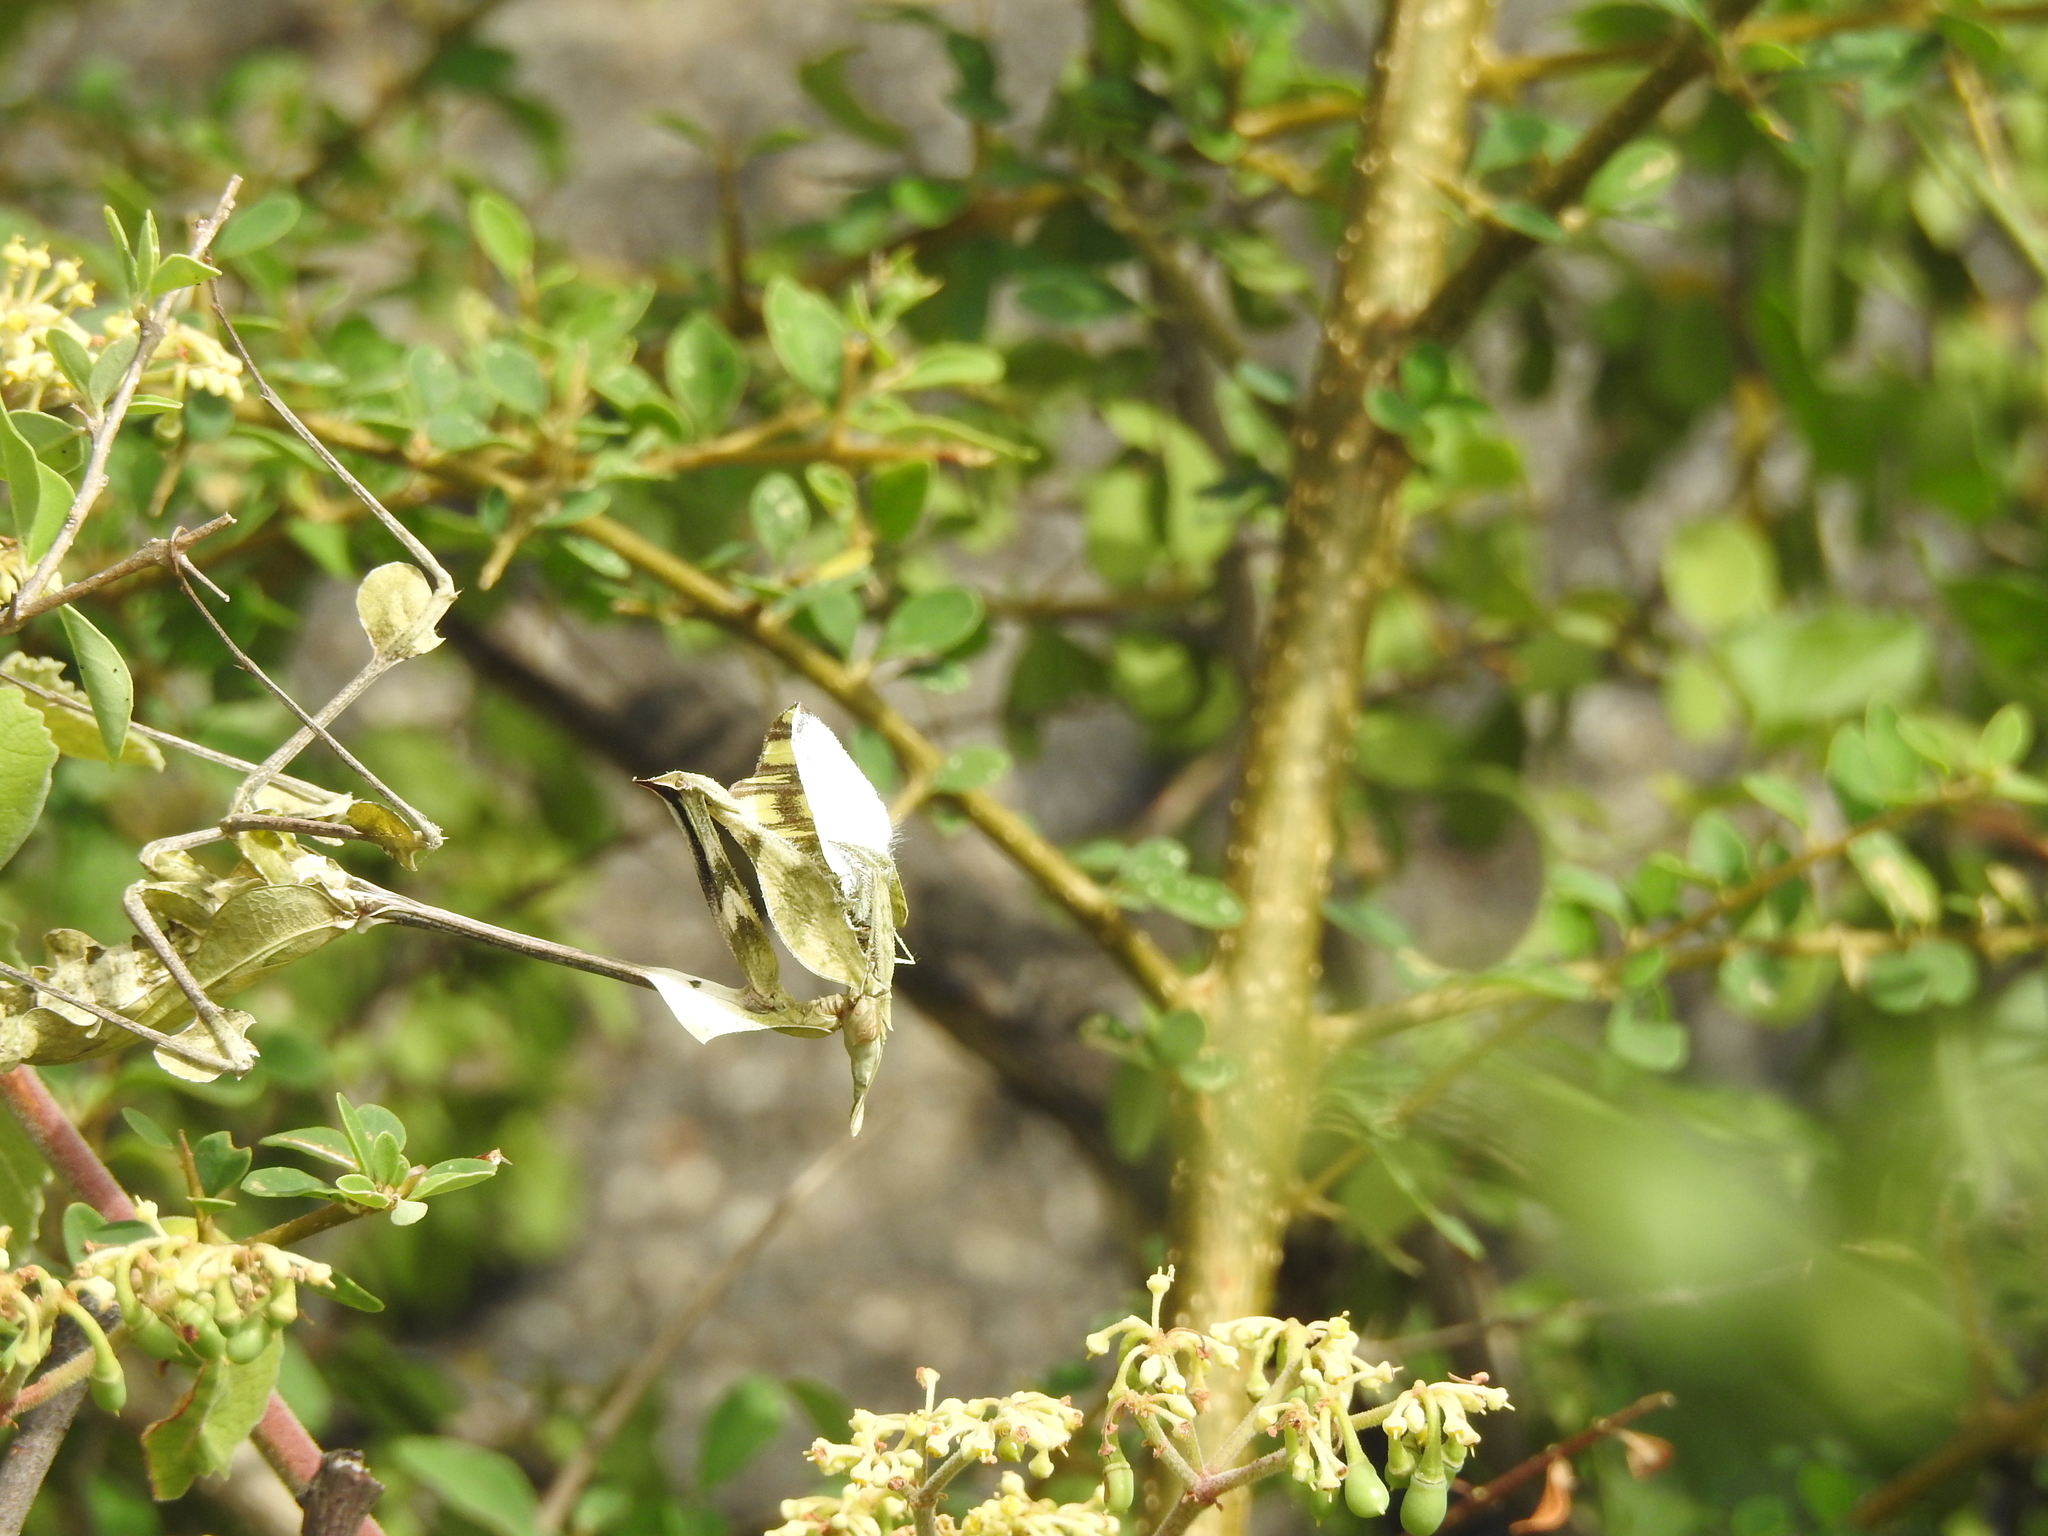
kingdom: Animalia
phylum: Arthropoda
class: Insecta
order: Mantodea
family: Empusidae
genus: Gongylus
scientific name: Gongylus gongylodes
